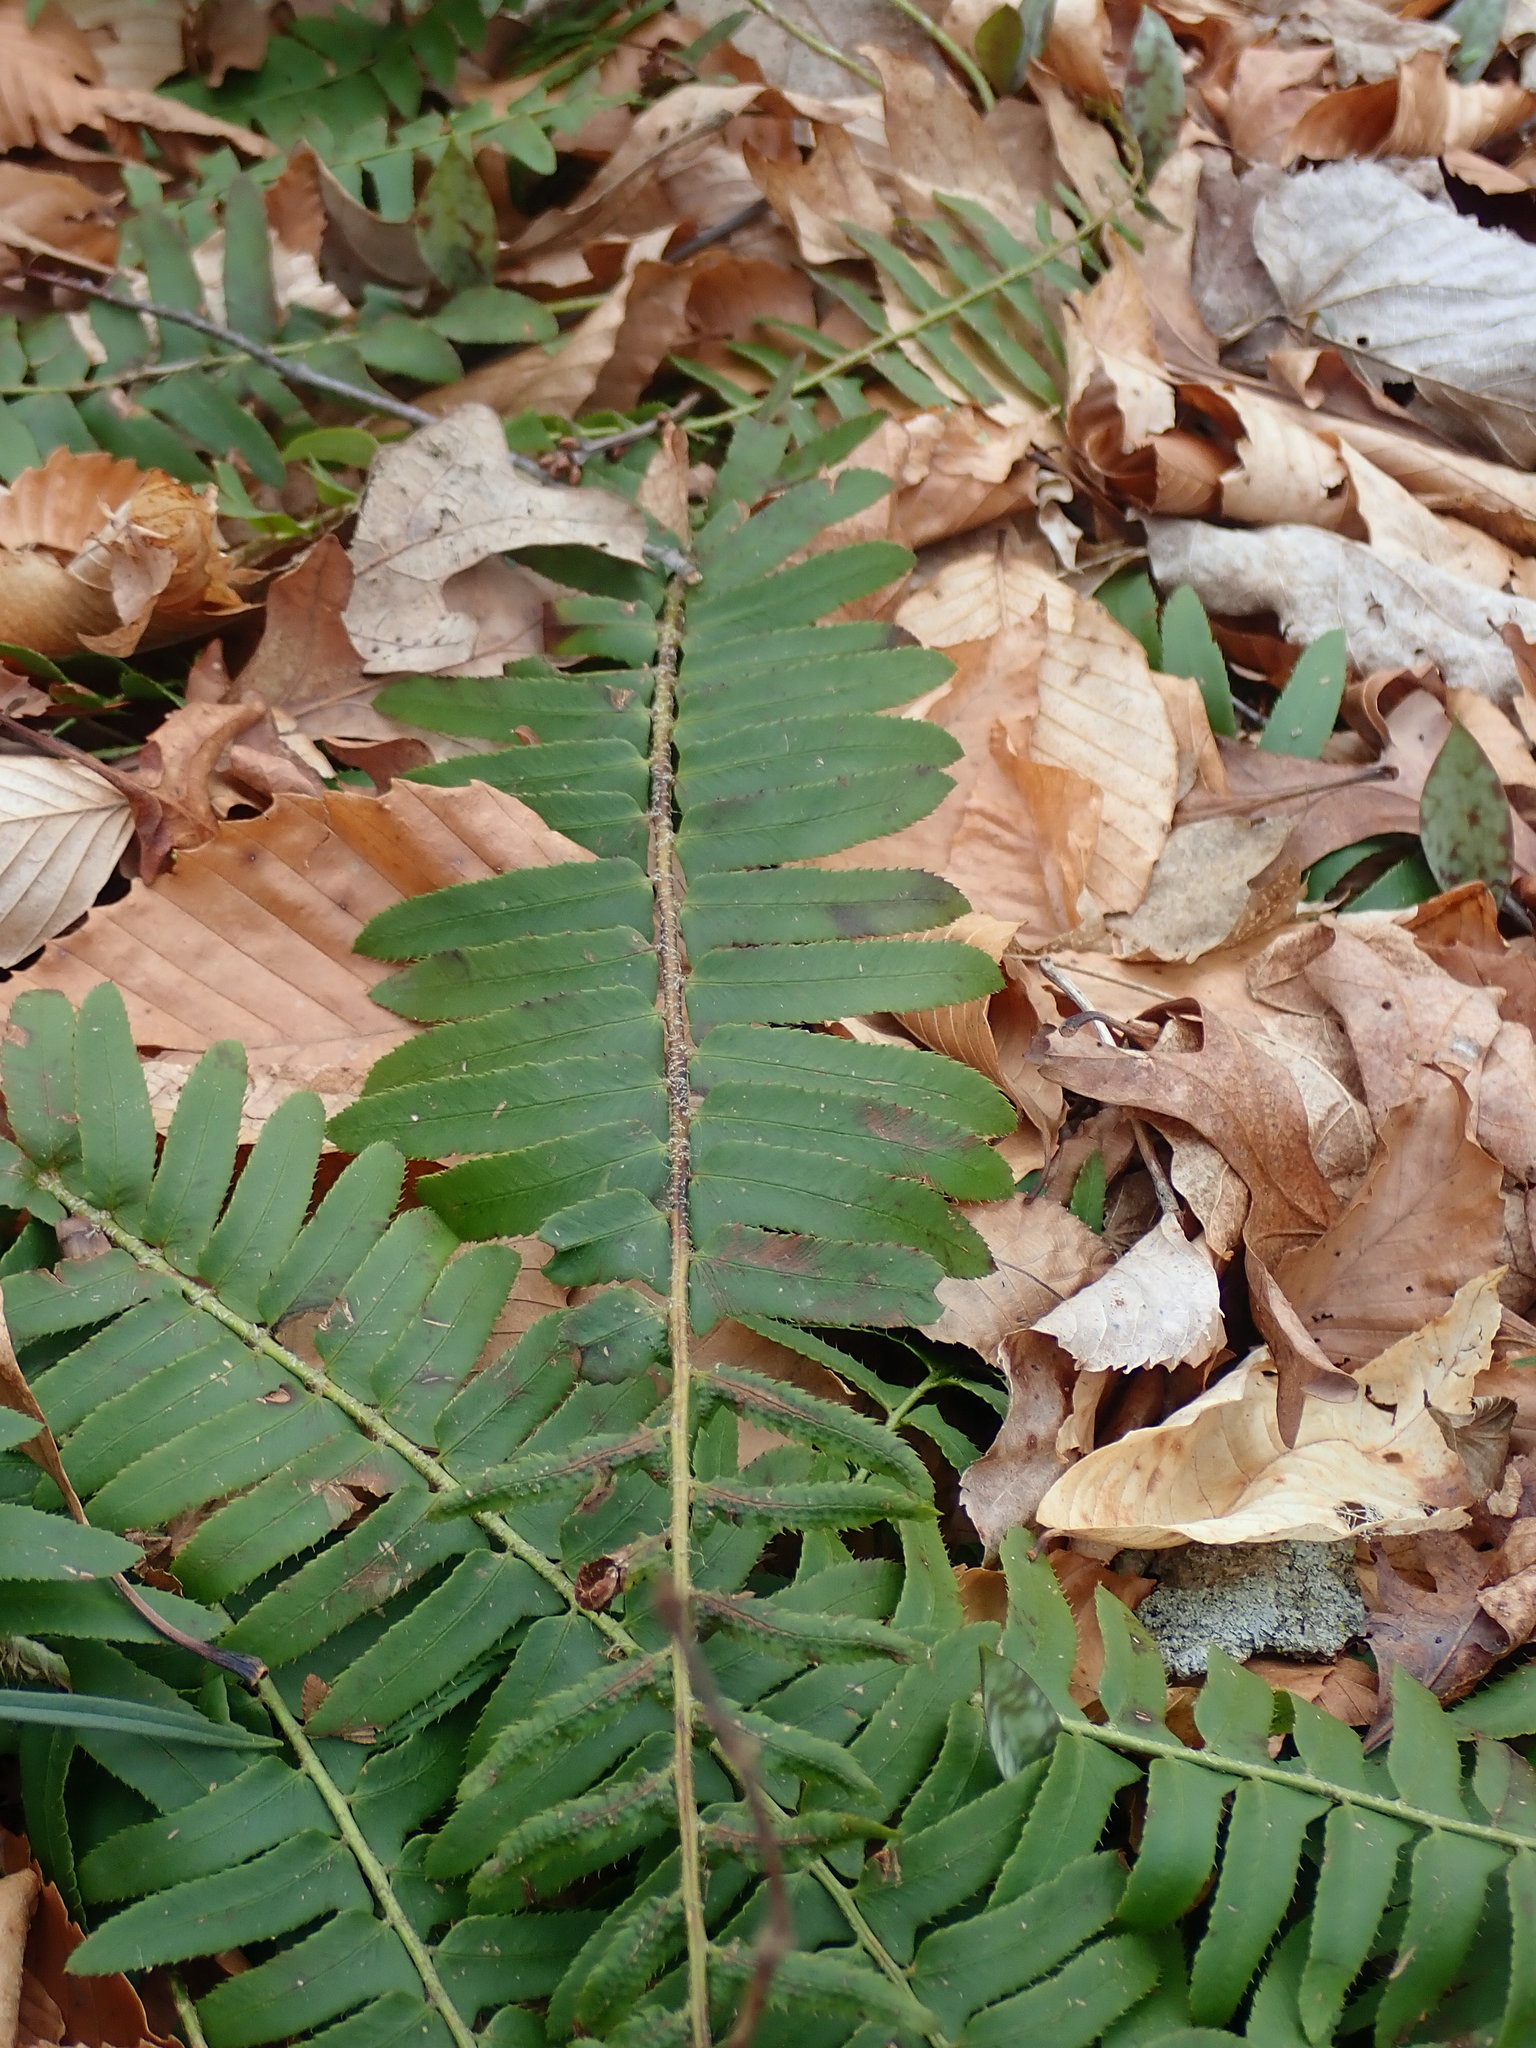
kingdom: Plantae
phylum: Tracheophyta
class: Polypodiopsida
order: Polypodiales
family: Dryopteridaceae
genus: Polystichum
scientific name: Polystichum acrostichoides
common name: Christmas fern
